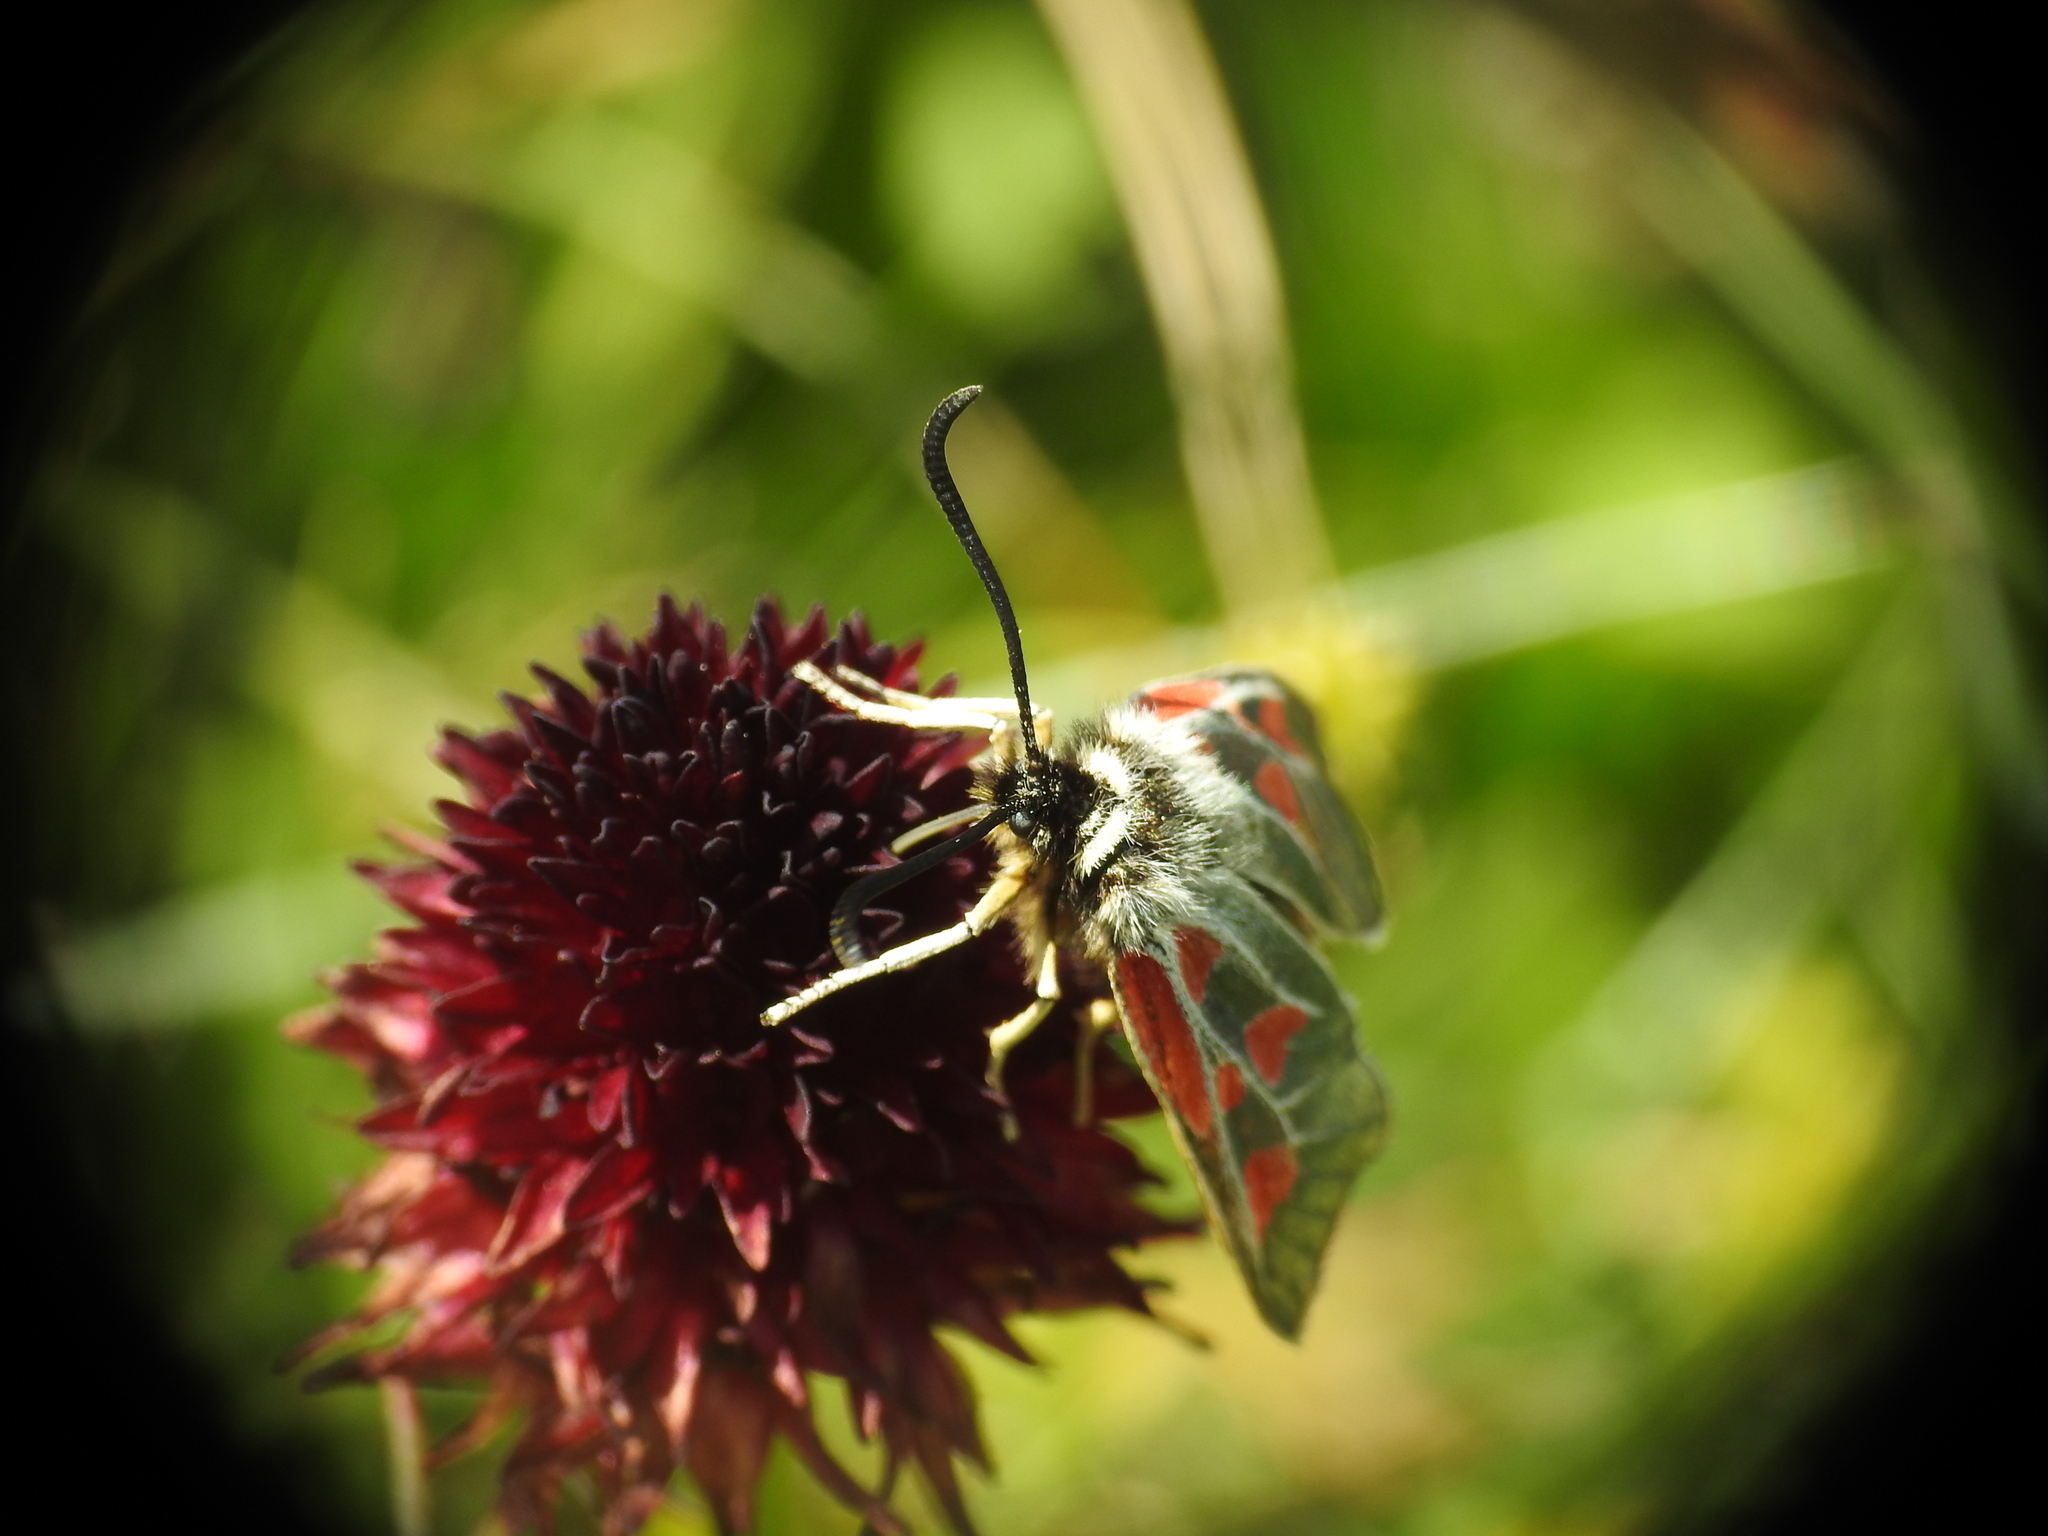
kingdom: Animalia
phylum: Arthropoda
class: Insecta
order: Lepidoptera
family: Zygaenidae
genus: Zygaena
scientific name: Zygaena exulans
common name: Scotch burnet
